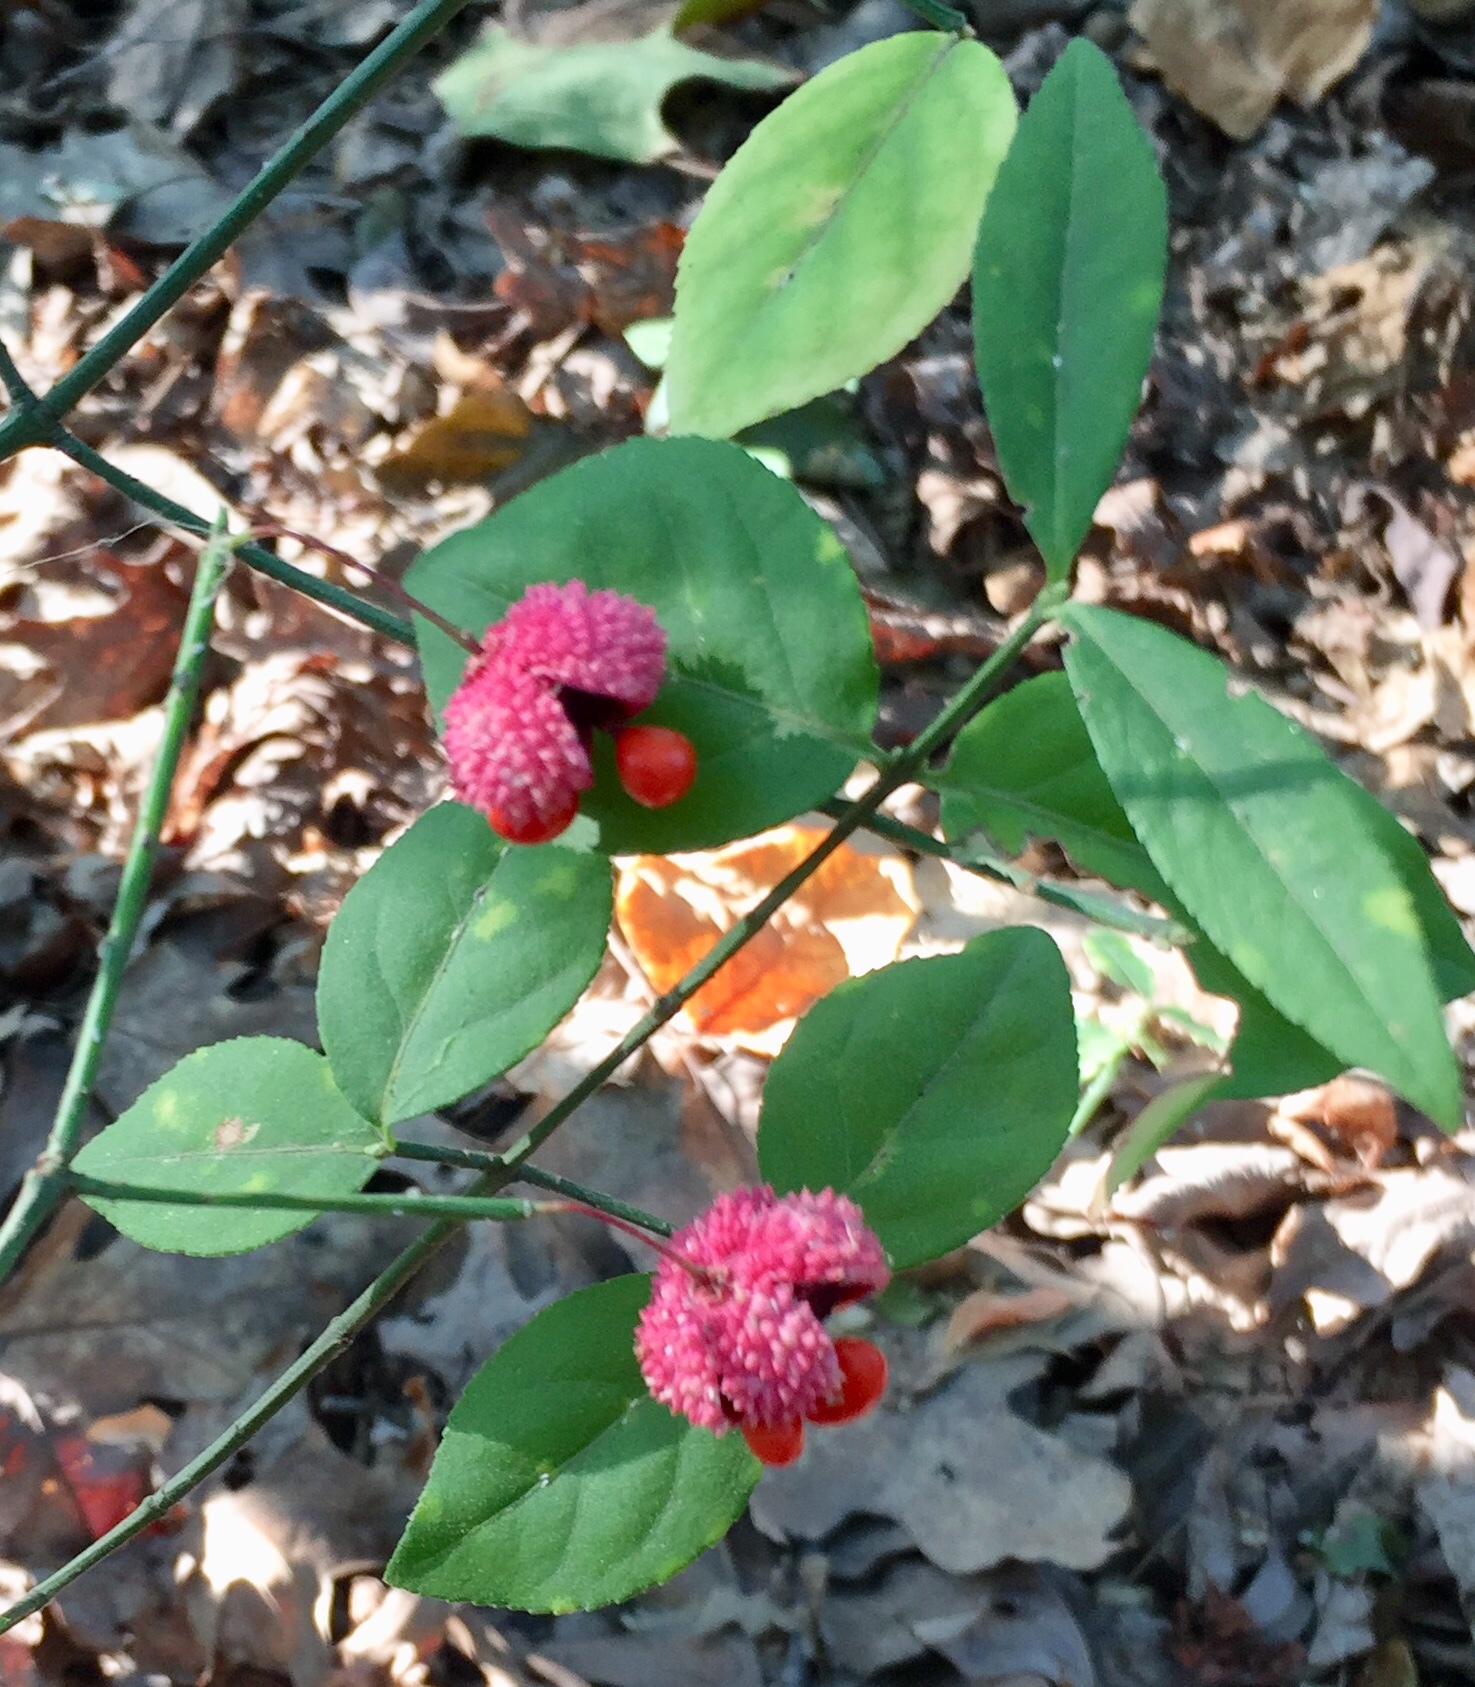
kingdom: Plantae
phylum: Tracheophyta
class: Magnoliopsida
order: Celastrales
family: Celastraceae
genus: Euonymus
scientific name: Euonymus americanus
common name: Bursting-heart
